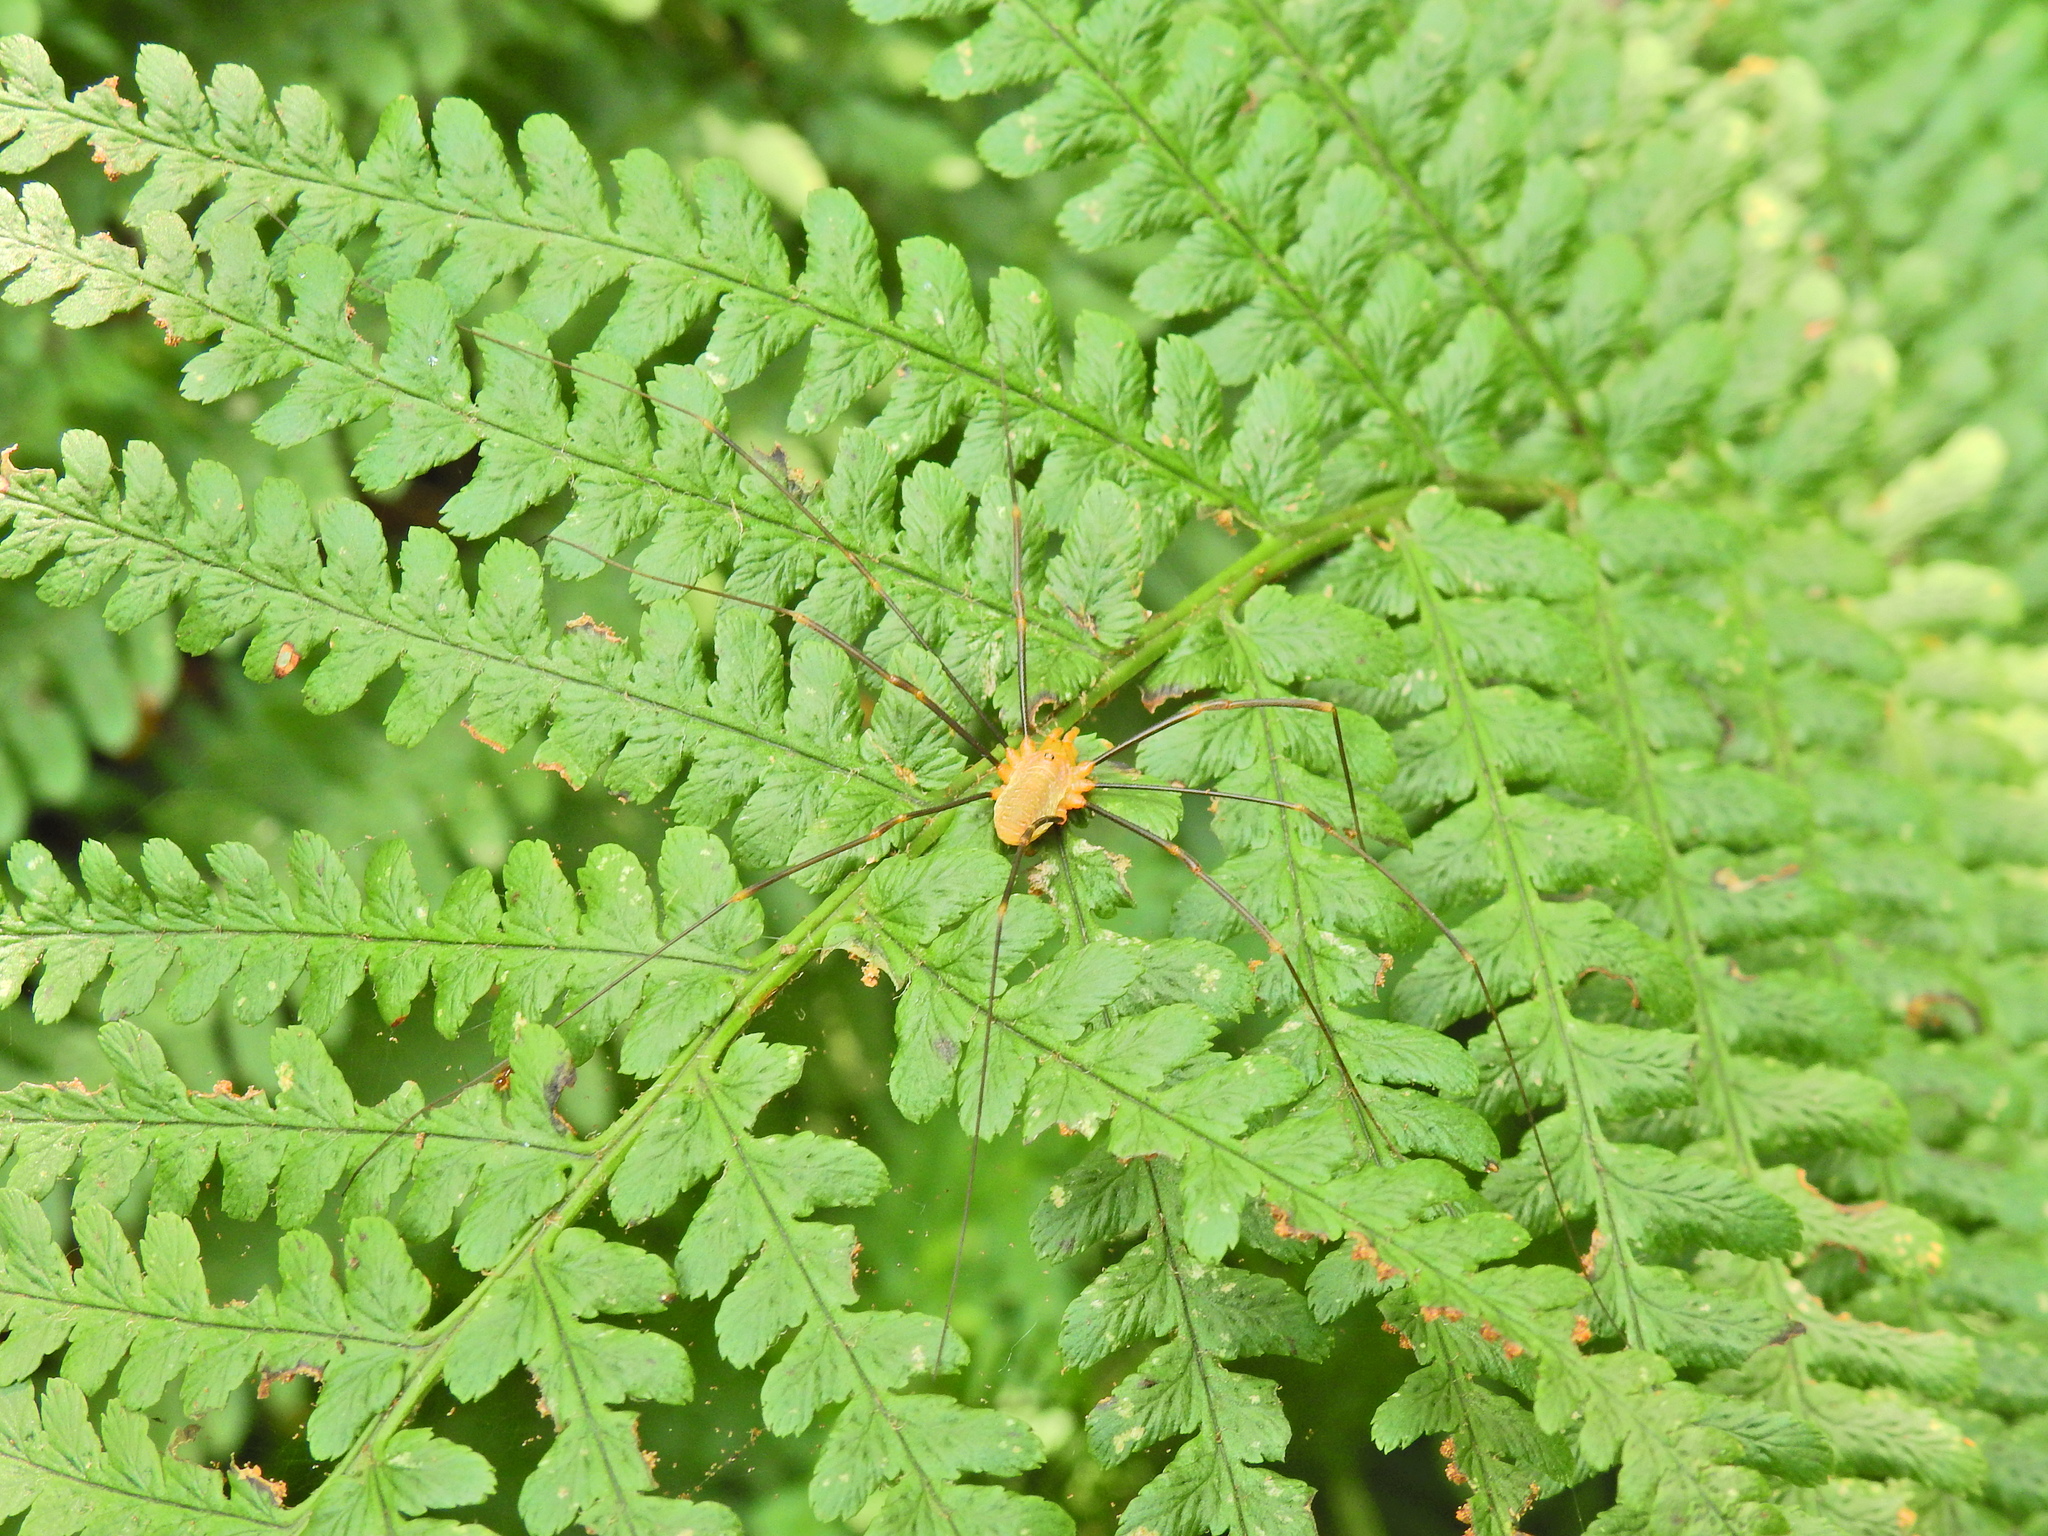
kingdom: Animalia
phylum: Arthropoda
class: Arachnida
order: Opiliones
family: Phalangiidae
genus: Opilio
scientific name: Opilio canestrinii
